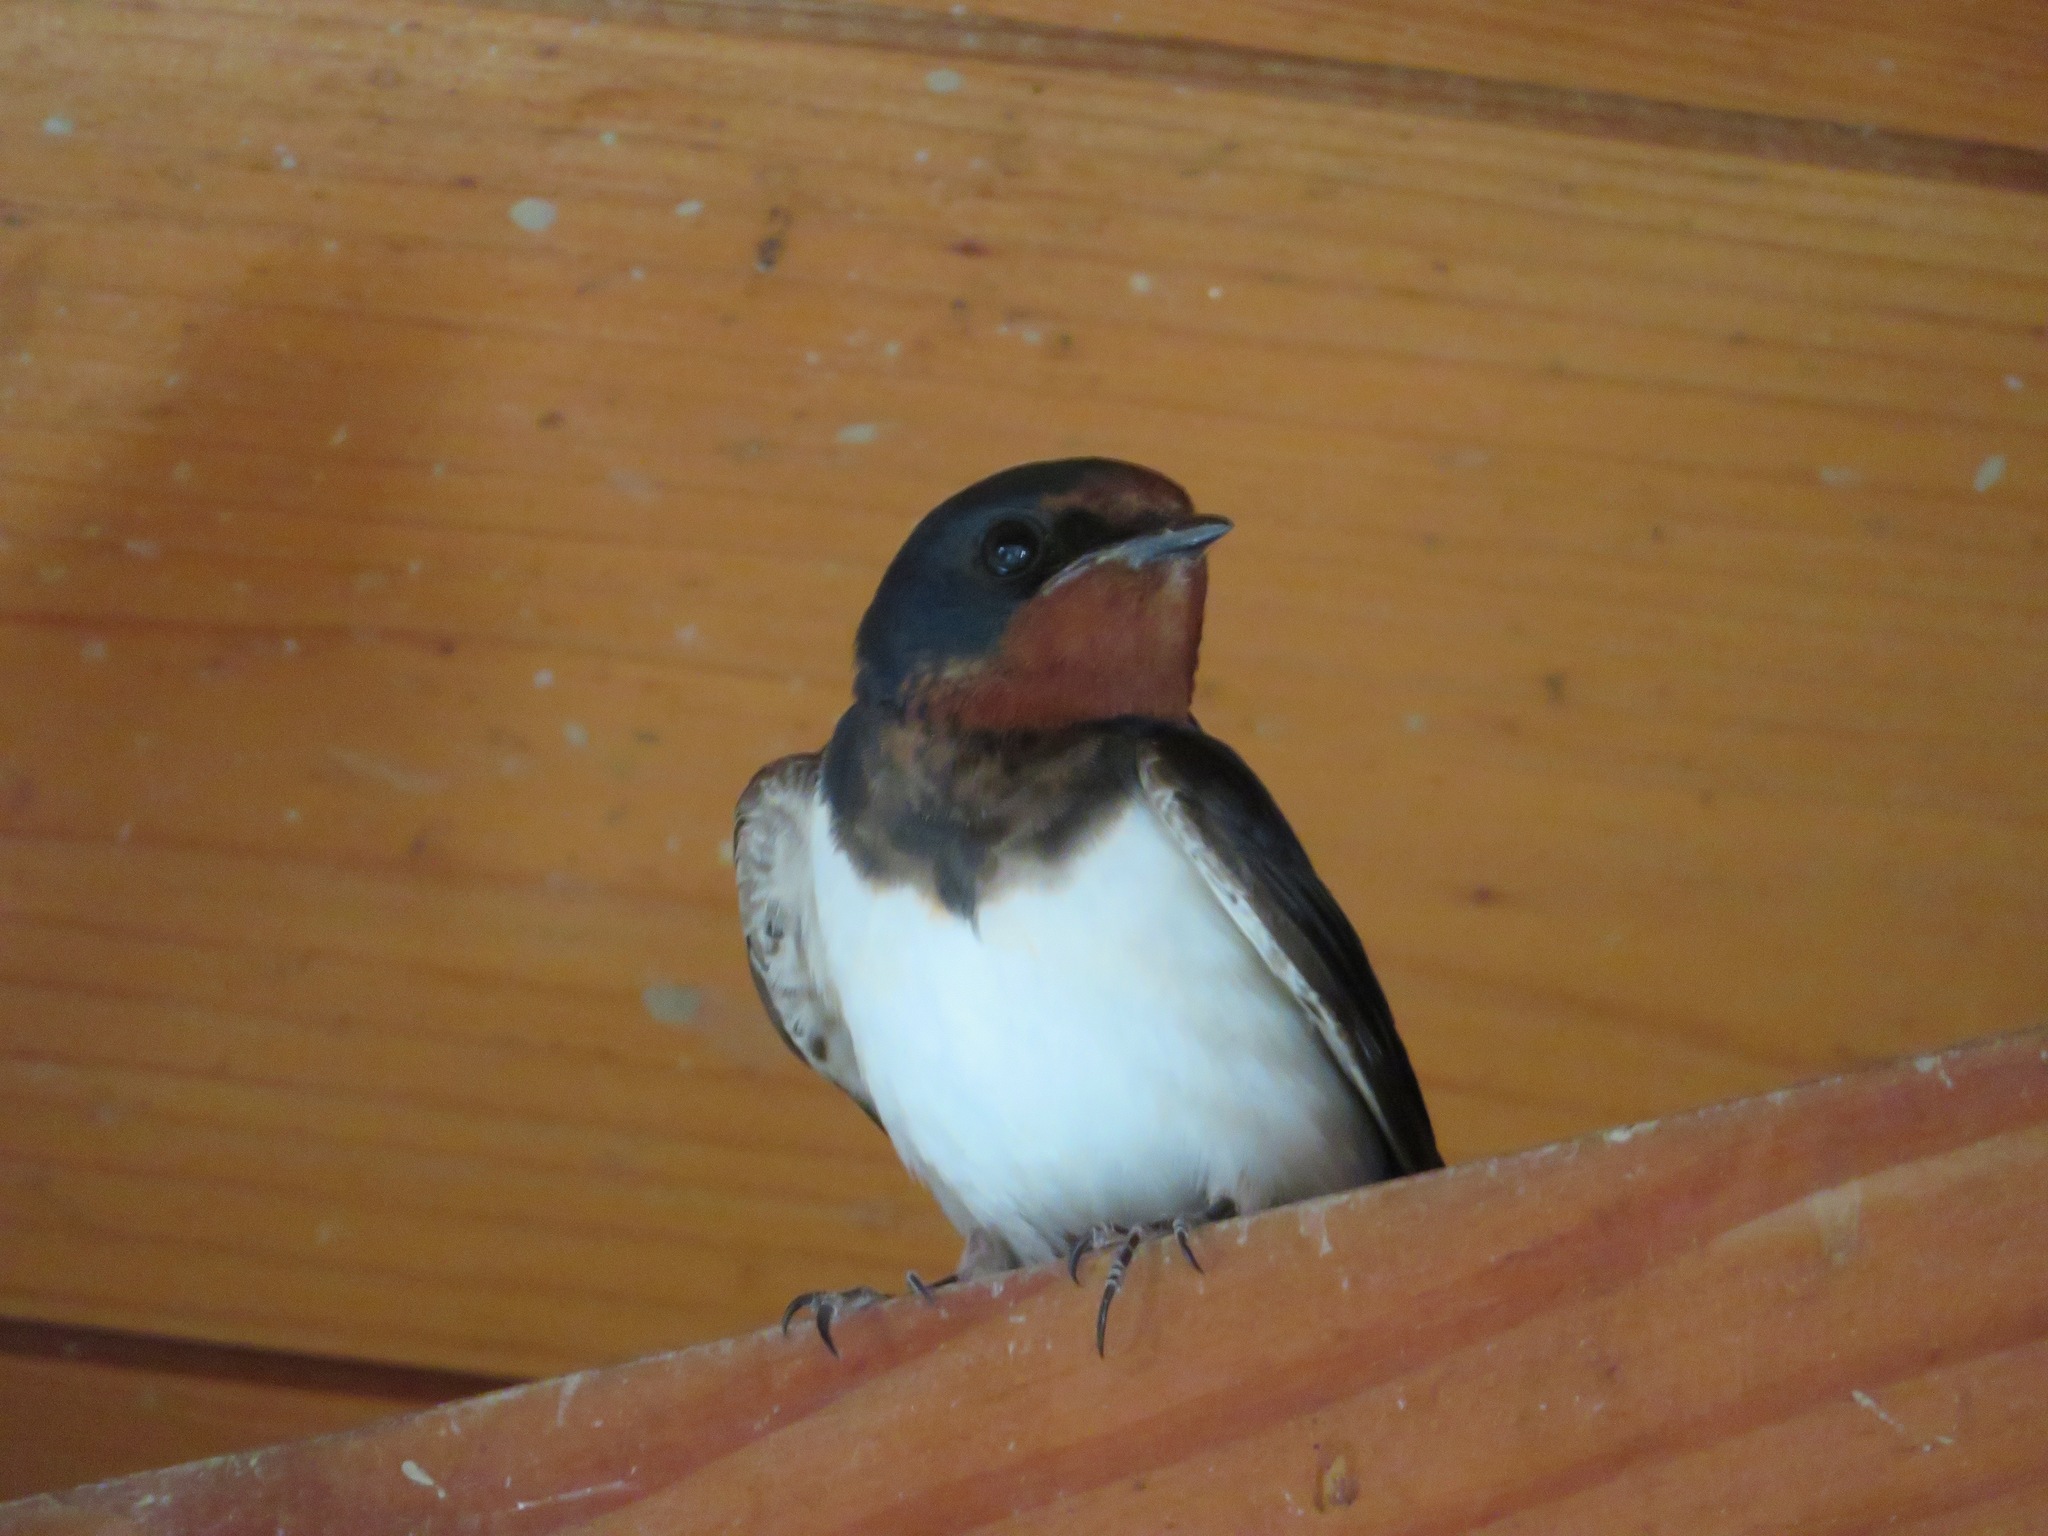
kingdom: Animalia
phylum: Chordata
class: Aves
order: Passeriformes
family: Hirundinidae
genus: Hirundo
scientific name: Hirundo rustica
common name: Barn swallow
